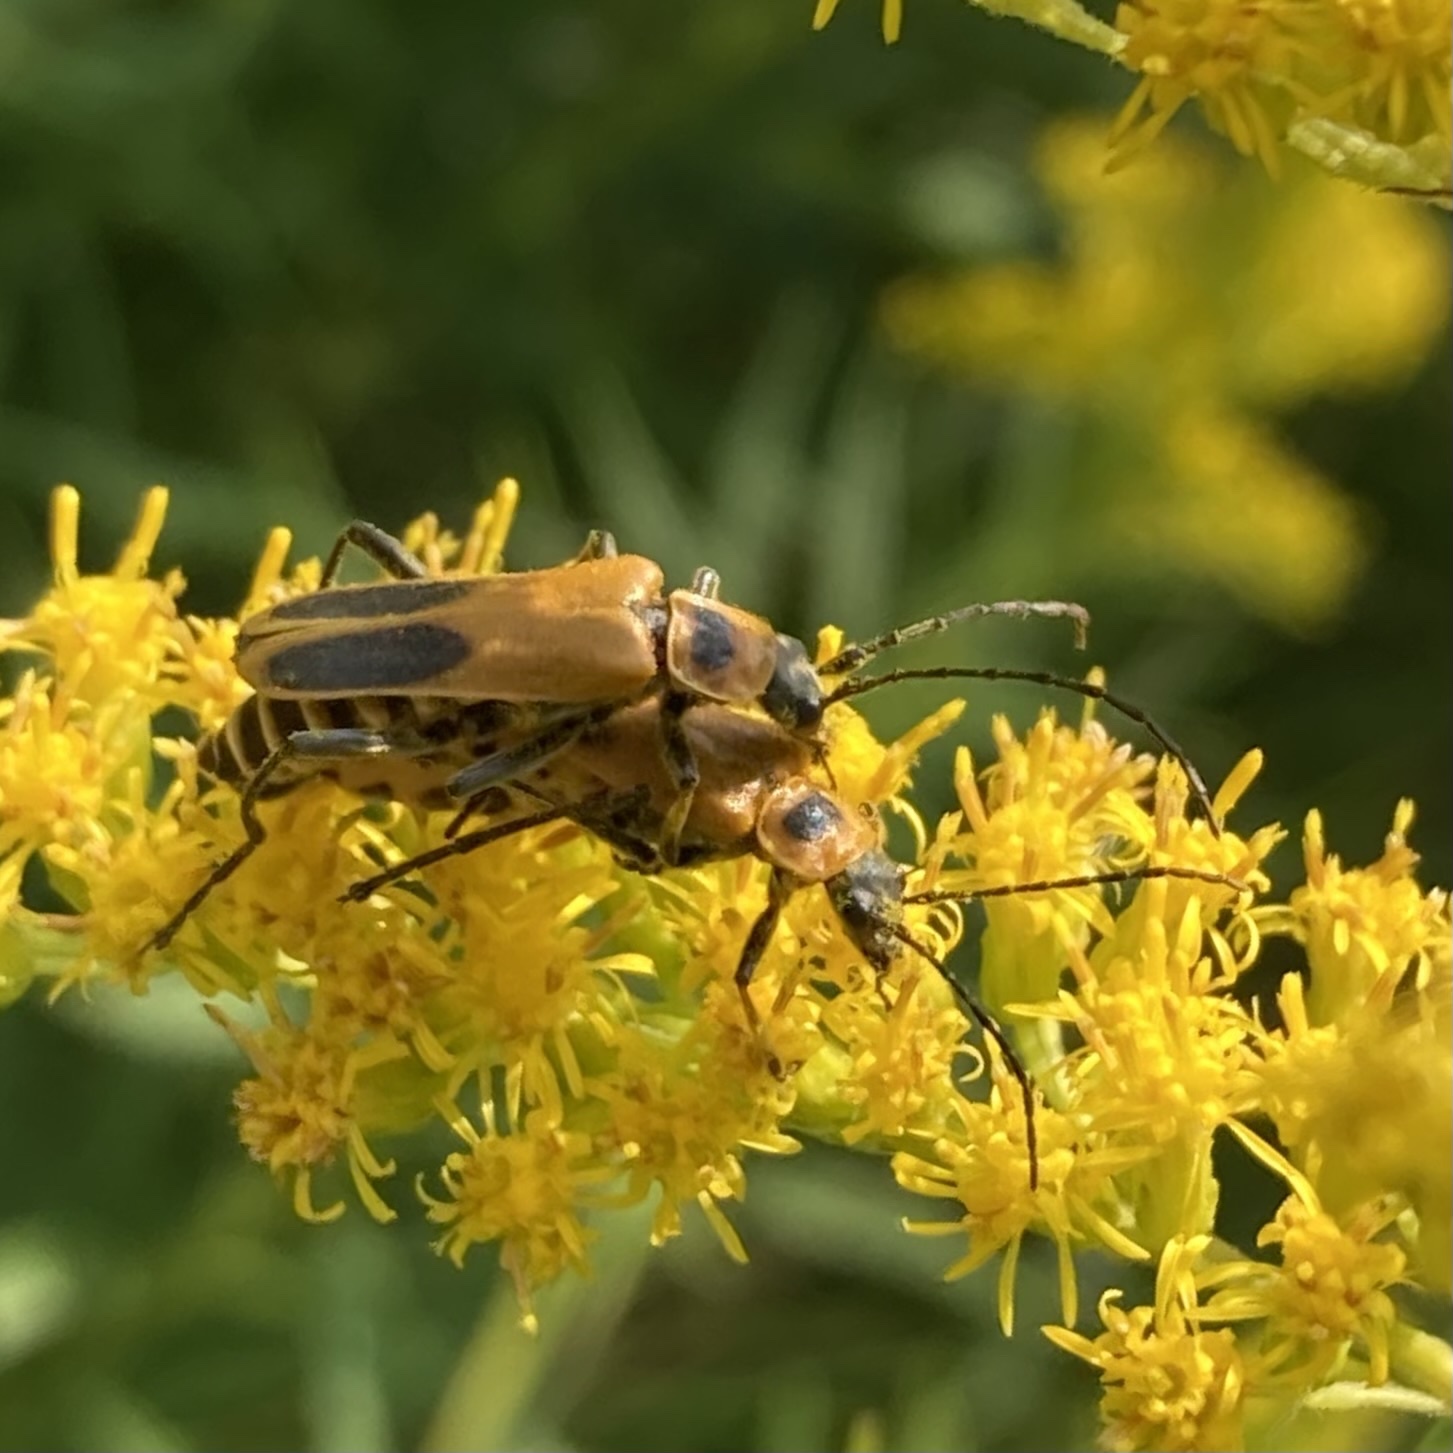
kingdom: Animalia
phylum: Arthropoda
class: Insecta
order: Coleoptera
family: Cantharidae
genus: Chauliognathus
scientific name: Chauliognathus pensylvanicus
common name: Goldenrod soldier beetle
